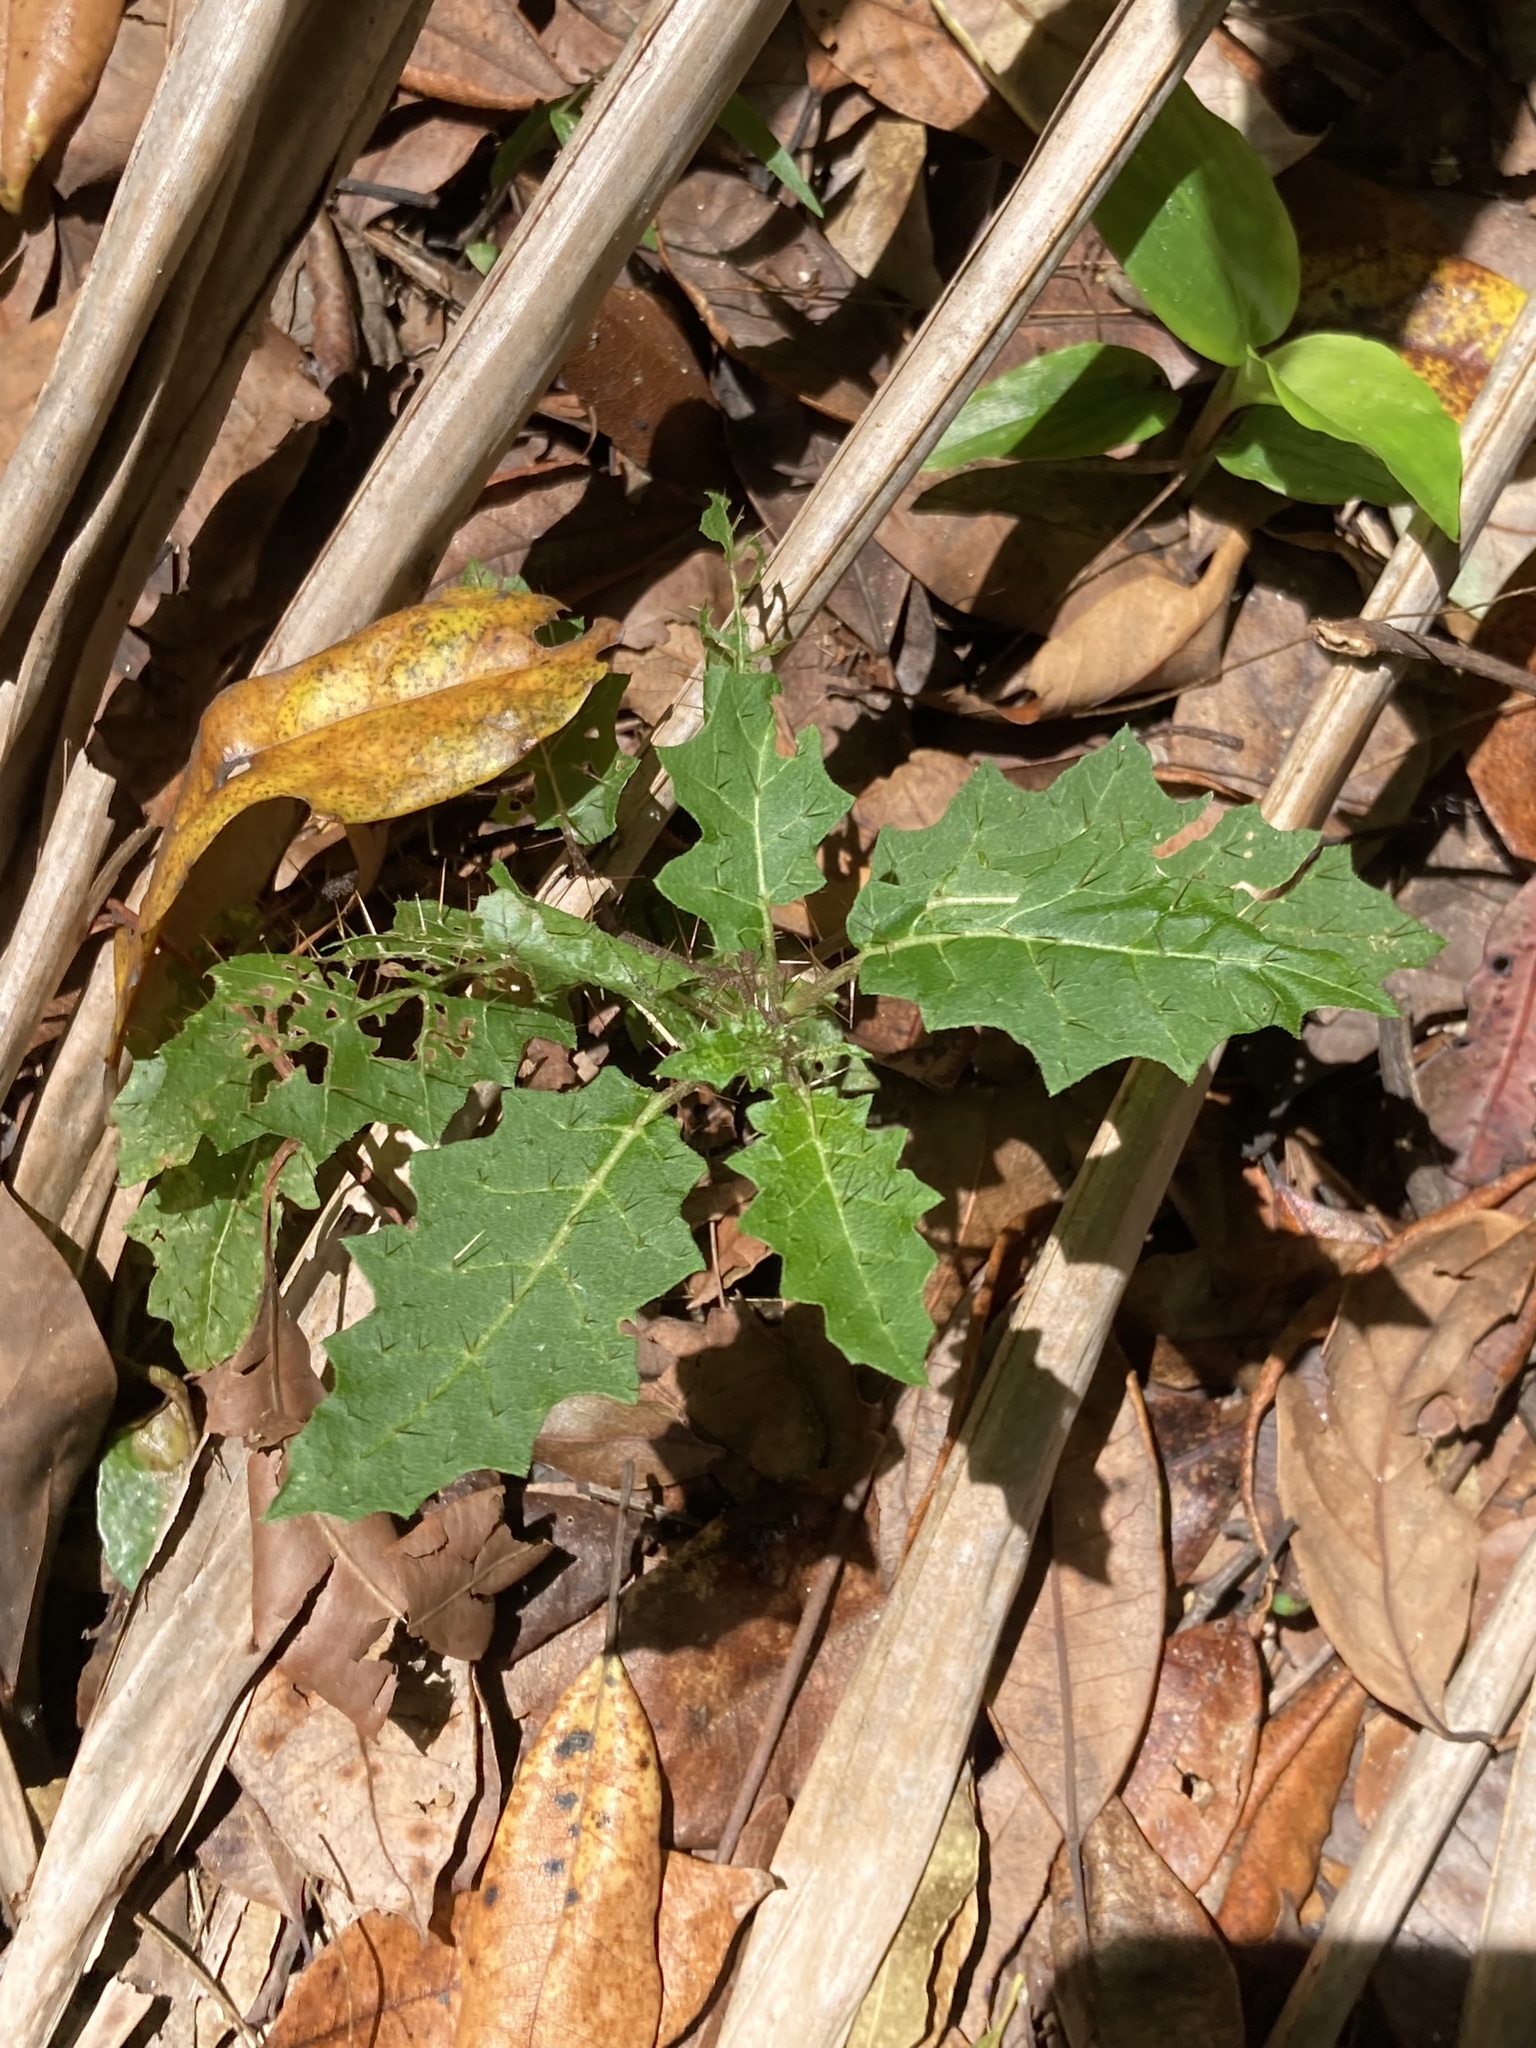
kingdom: Plantae
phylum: Tracheophyta
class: Magnoliopsida
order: Solanales
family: Solanaceae
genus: Solanum
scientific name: Solanum prinophyllum
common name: Forest nightshade
